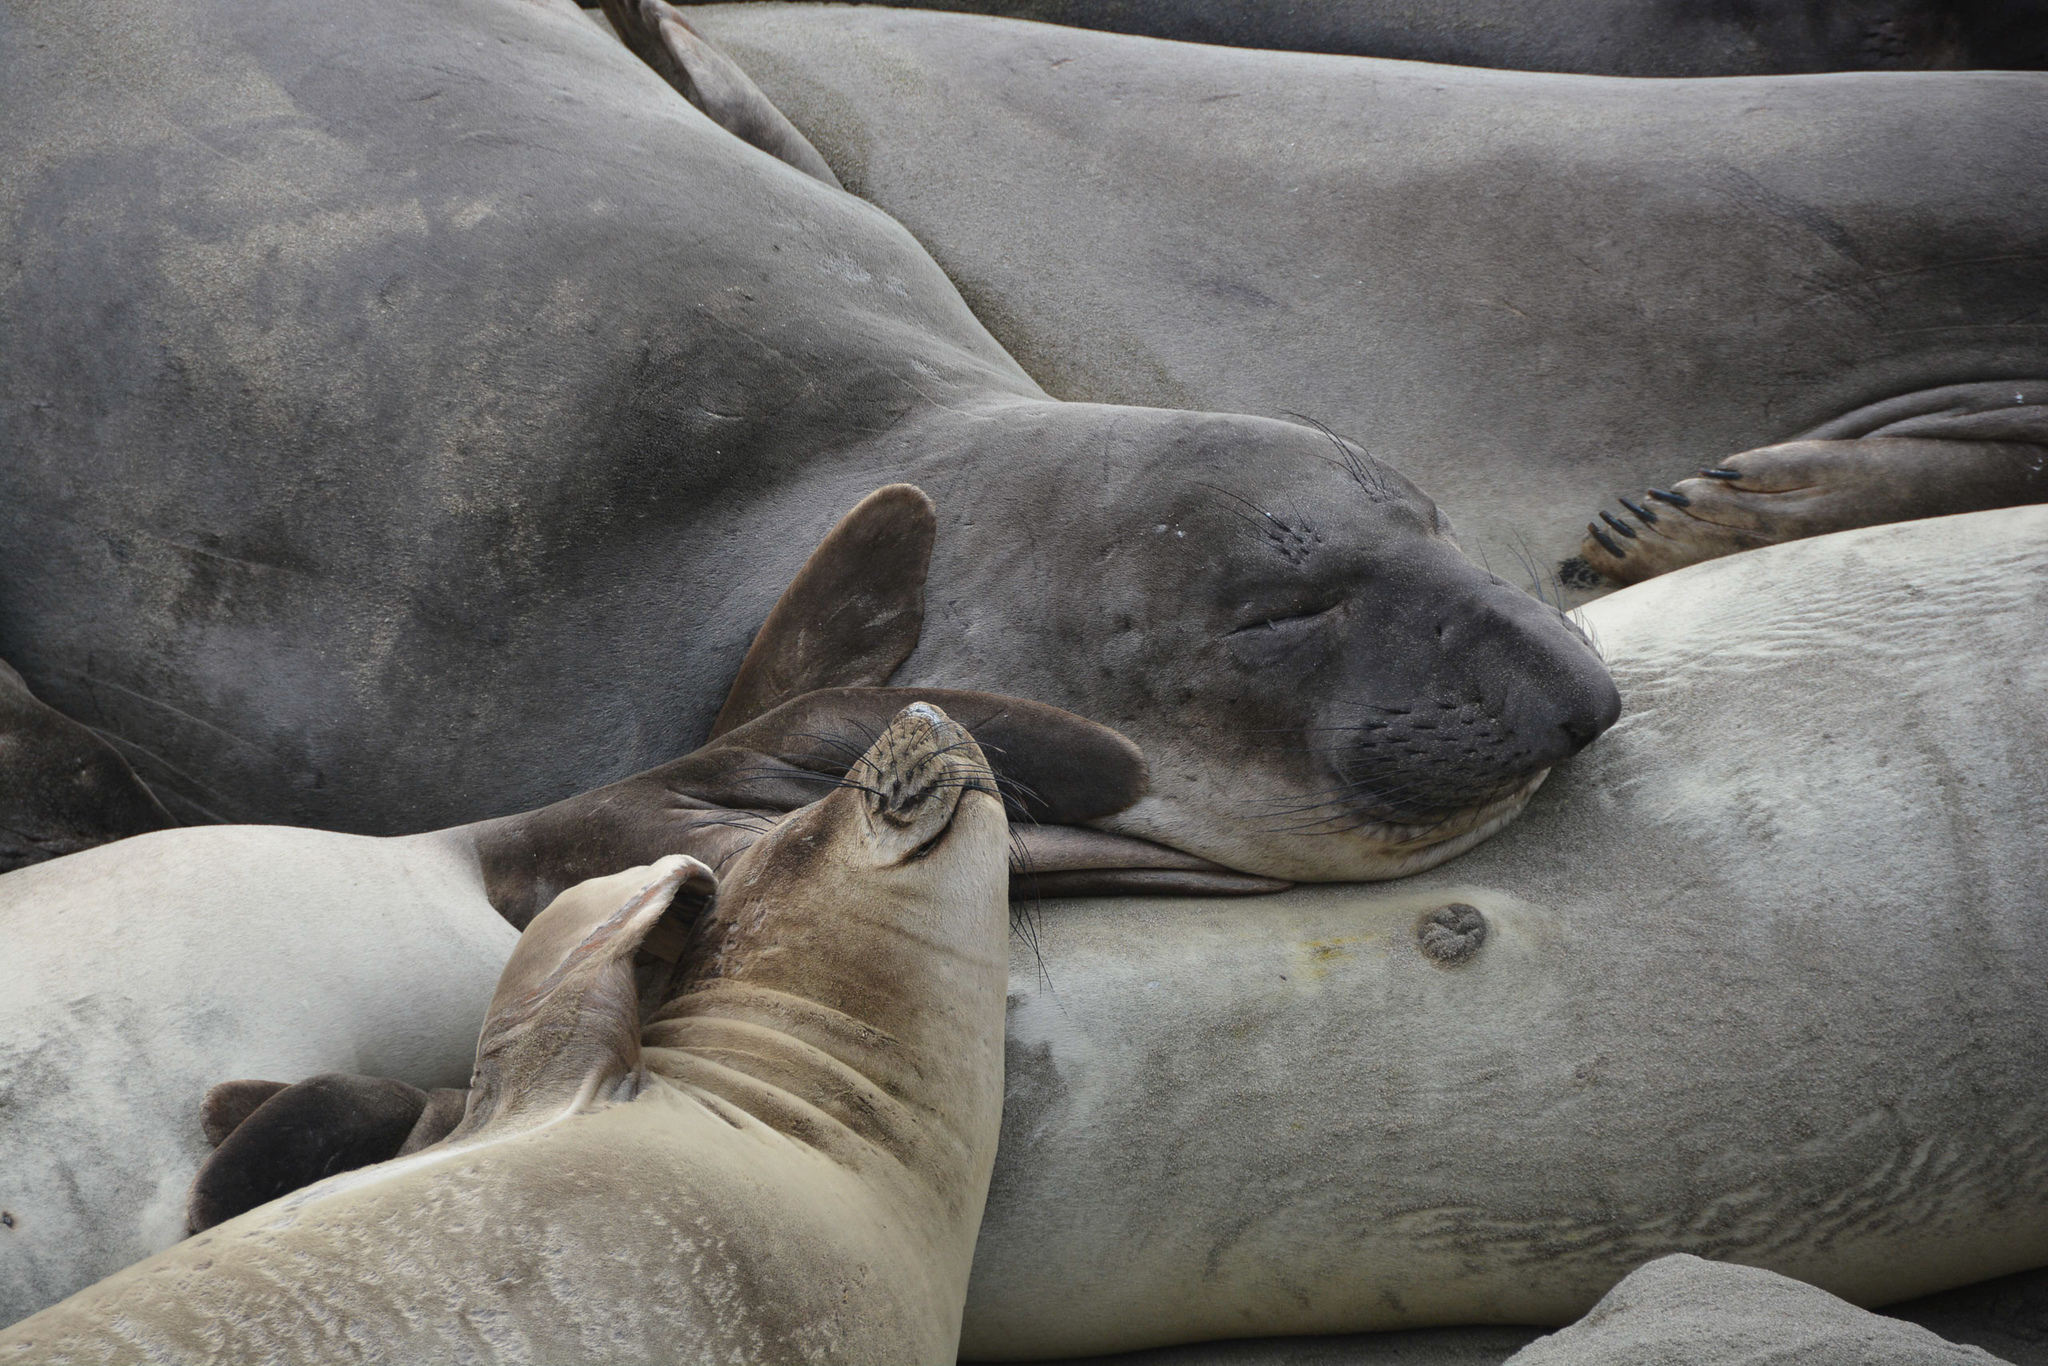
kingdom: Animalia
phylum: Chordata
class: Mammalia
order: Carnivora
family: Phocidae
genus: Mirounga
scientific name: Mirounga angustirostris
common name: Northern elephant seal
